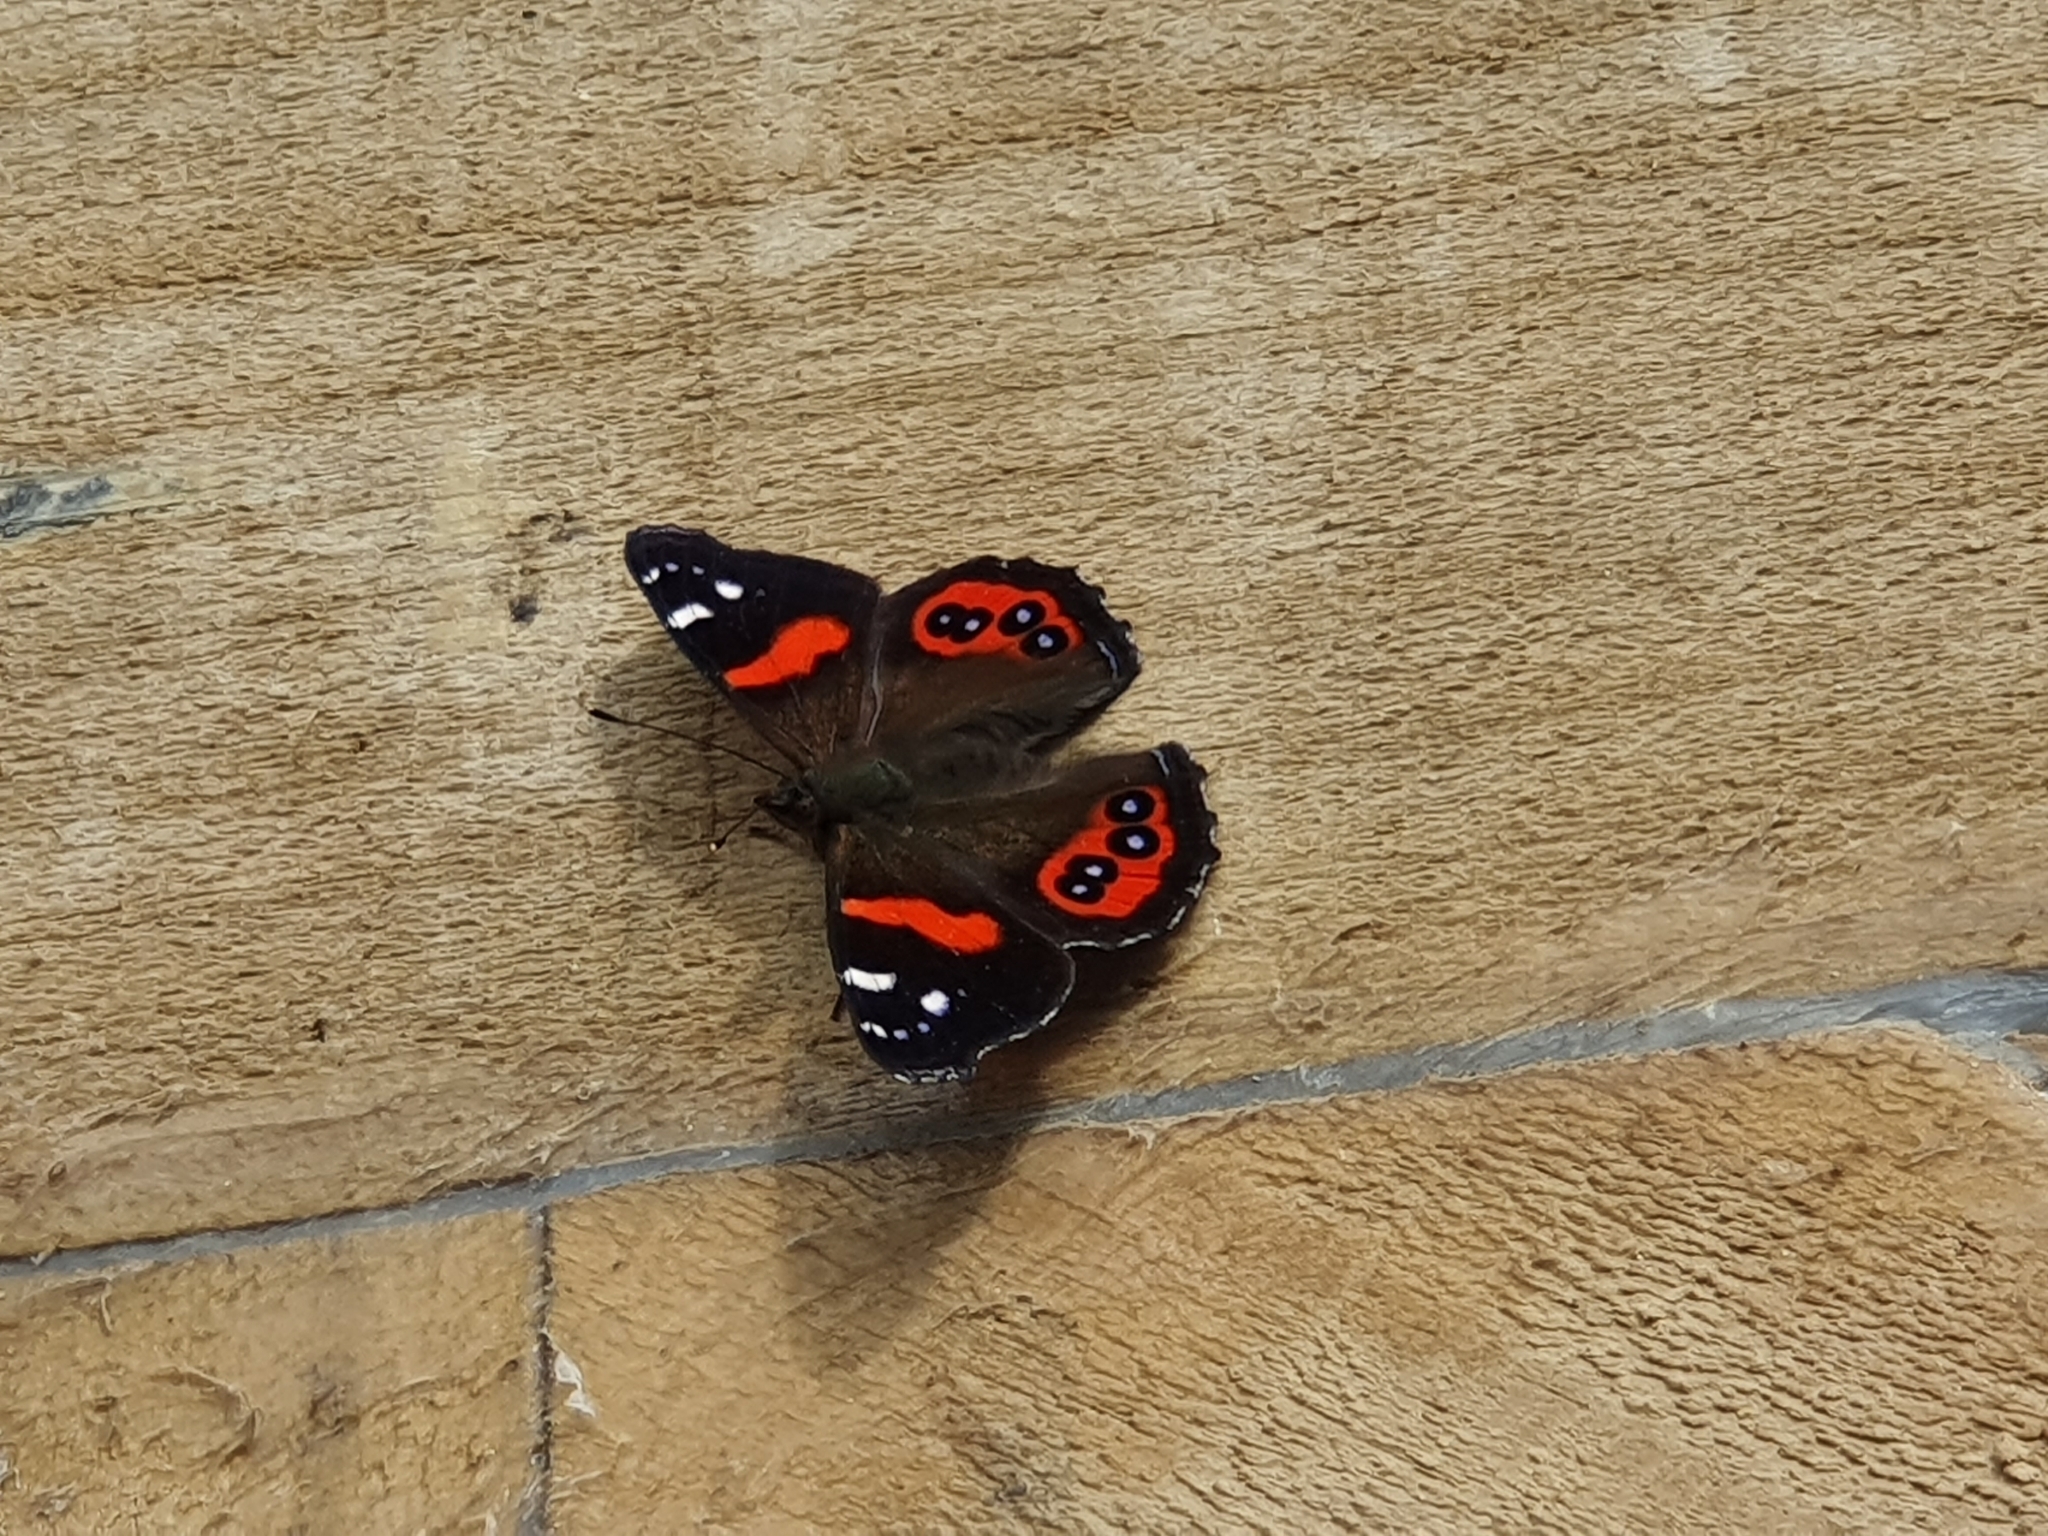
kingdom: Animalia
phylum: Arthropoda
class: Insecta
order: Lepidoptera
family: Nymphalidae
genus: Vanessa
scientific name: Vanessa gonerilla
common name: New zealand red admiral
